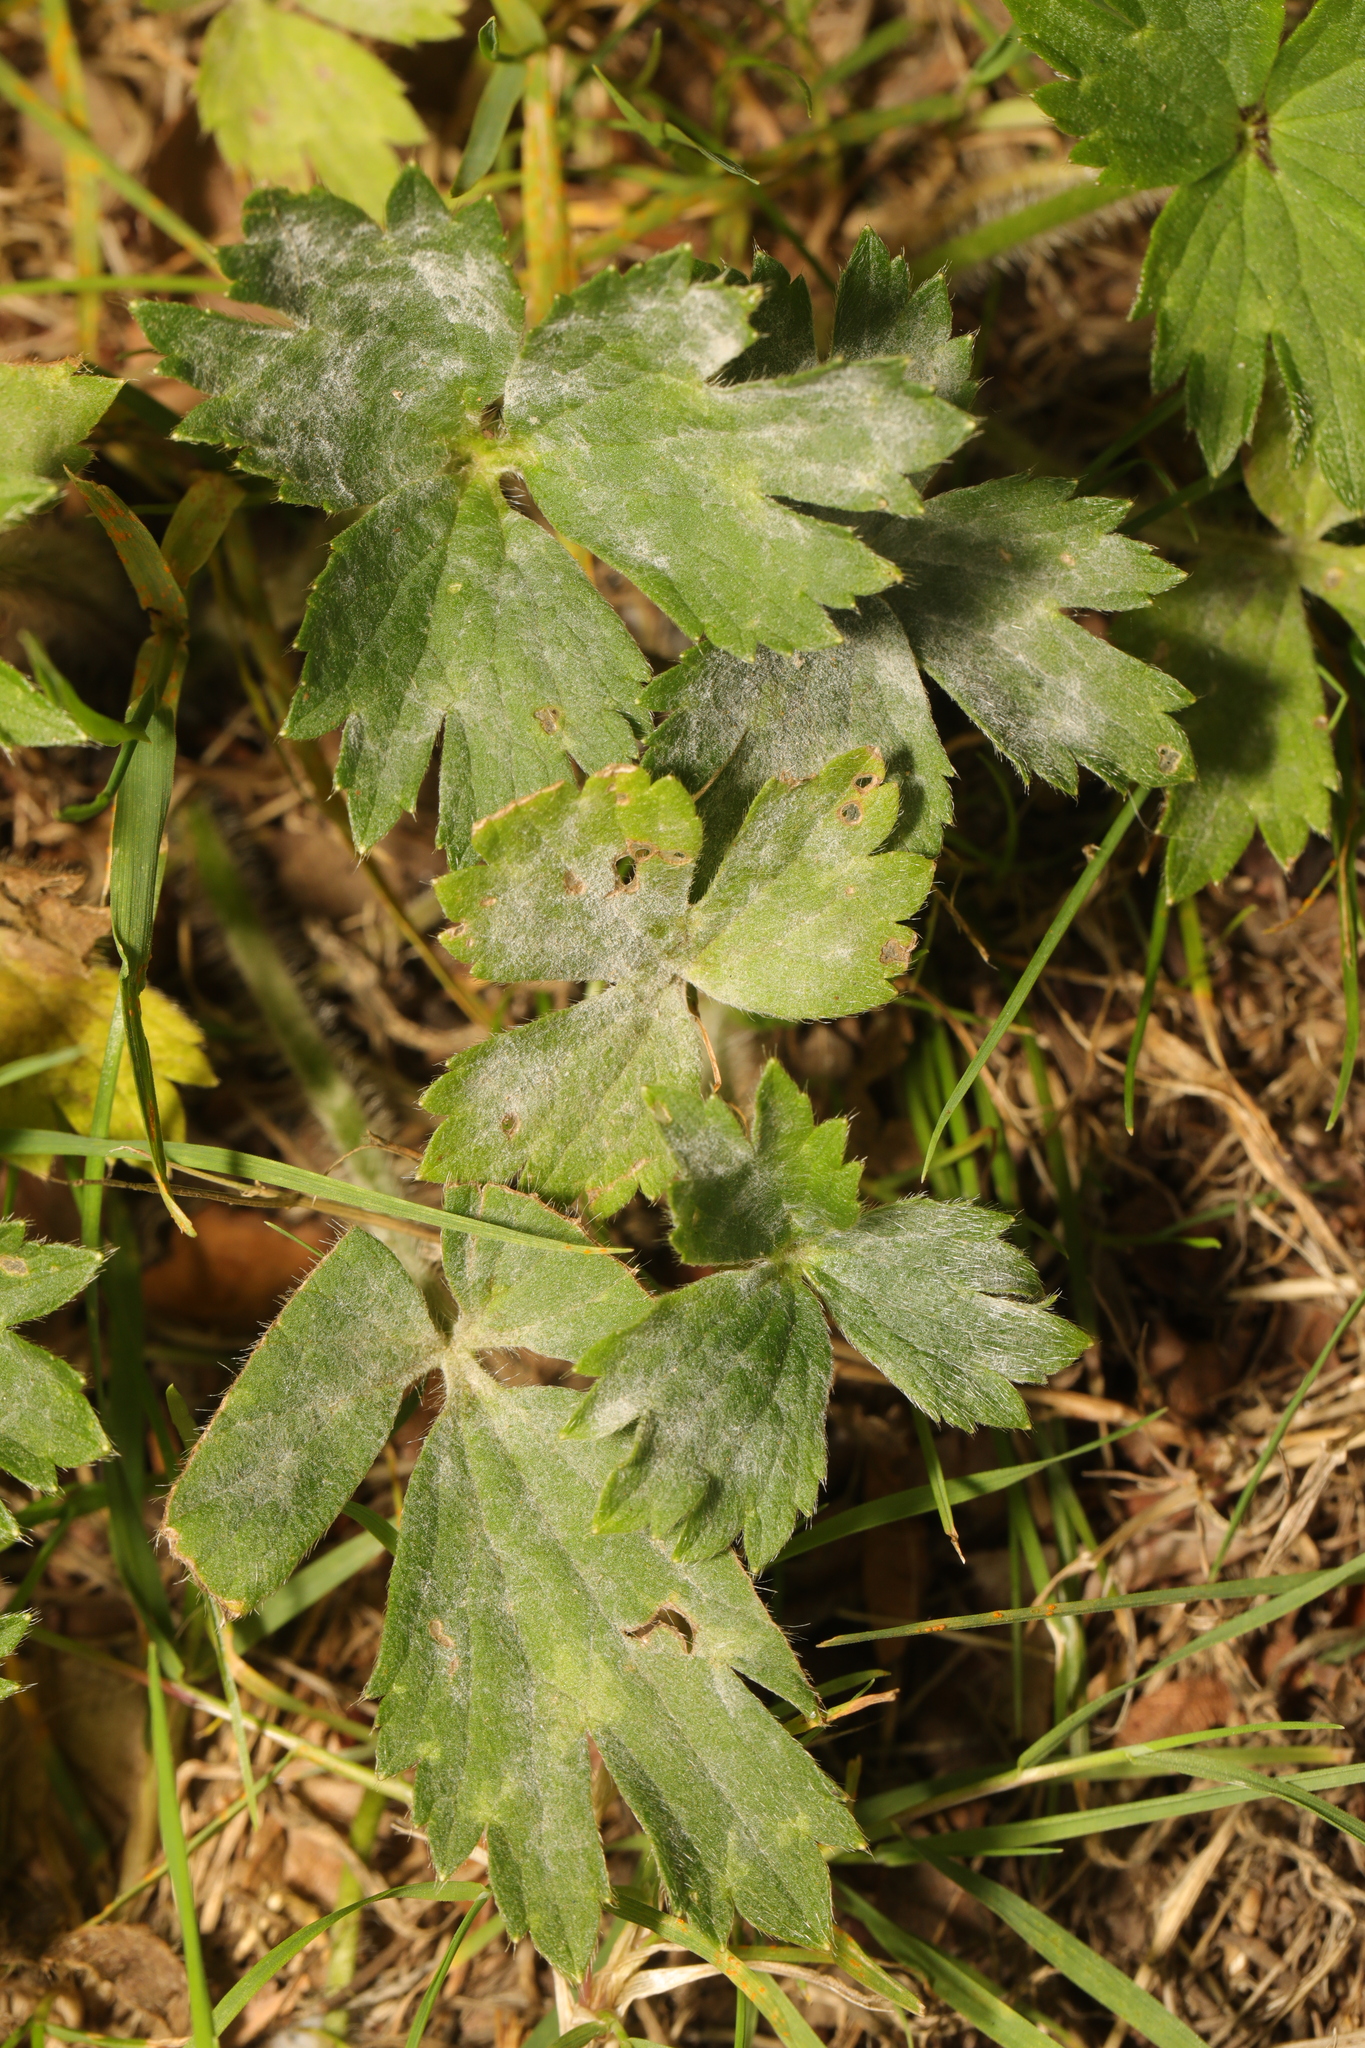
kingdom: Fungi
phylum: Ascomycota
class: Leotiomycetes
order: Helotiales
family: Erysiphaceae
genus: Erysiphe
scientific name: Erysiphe aquilegiae
